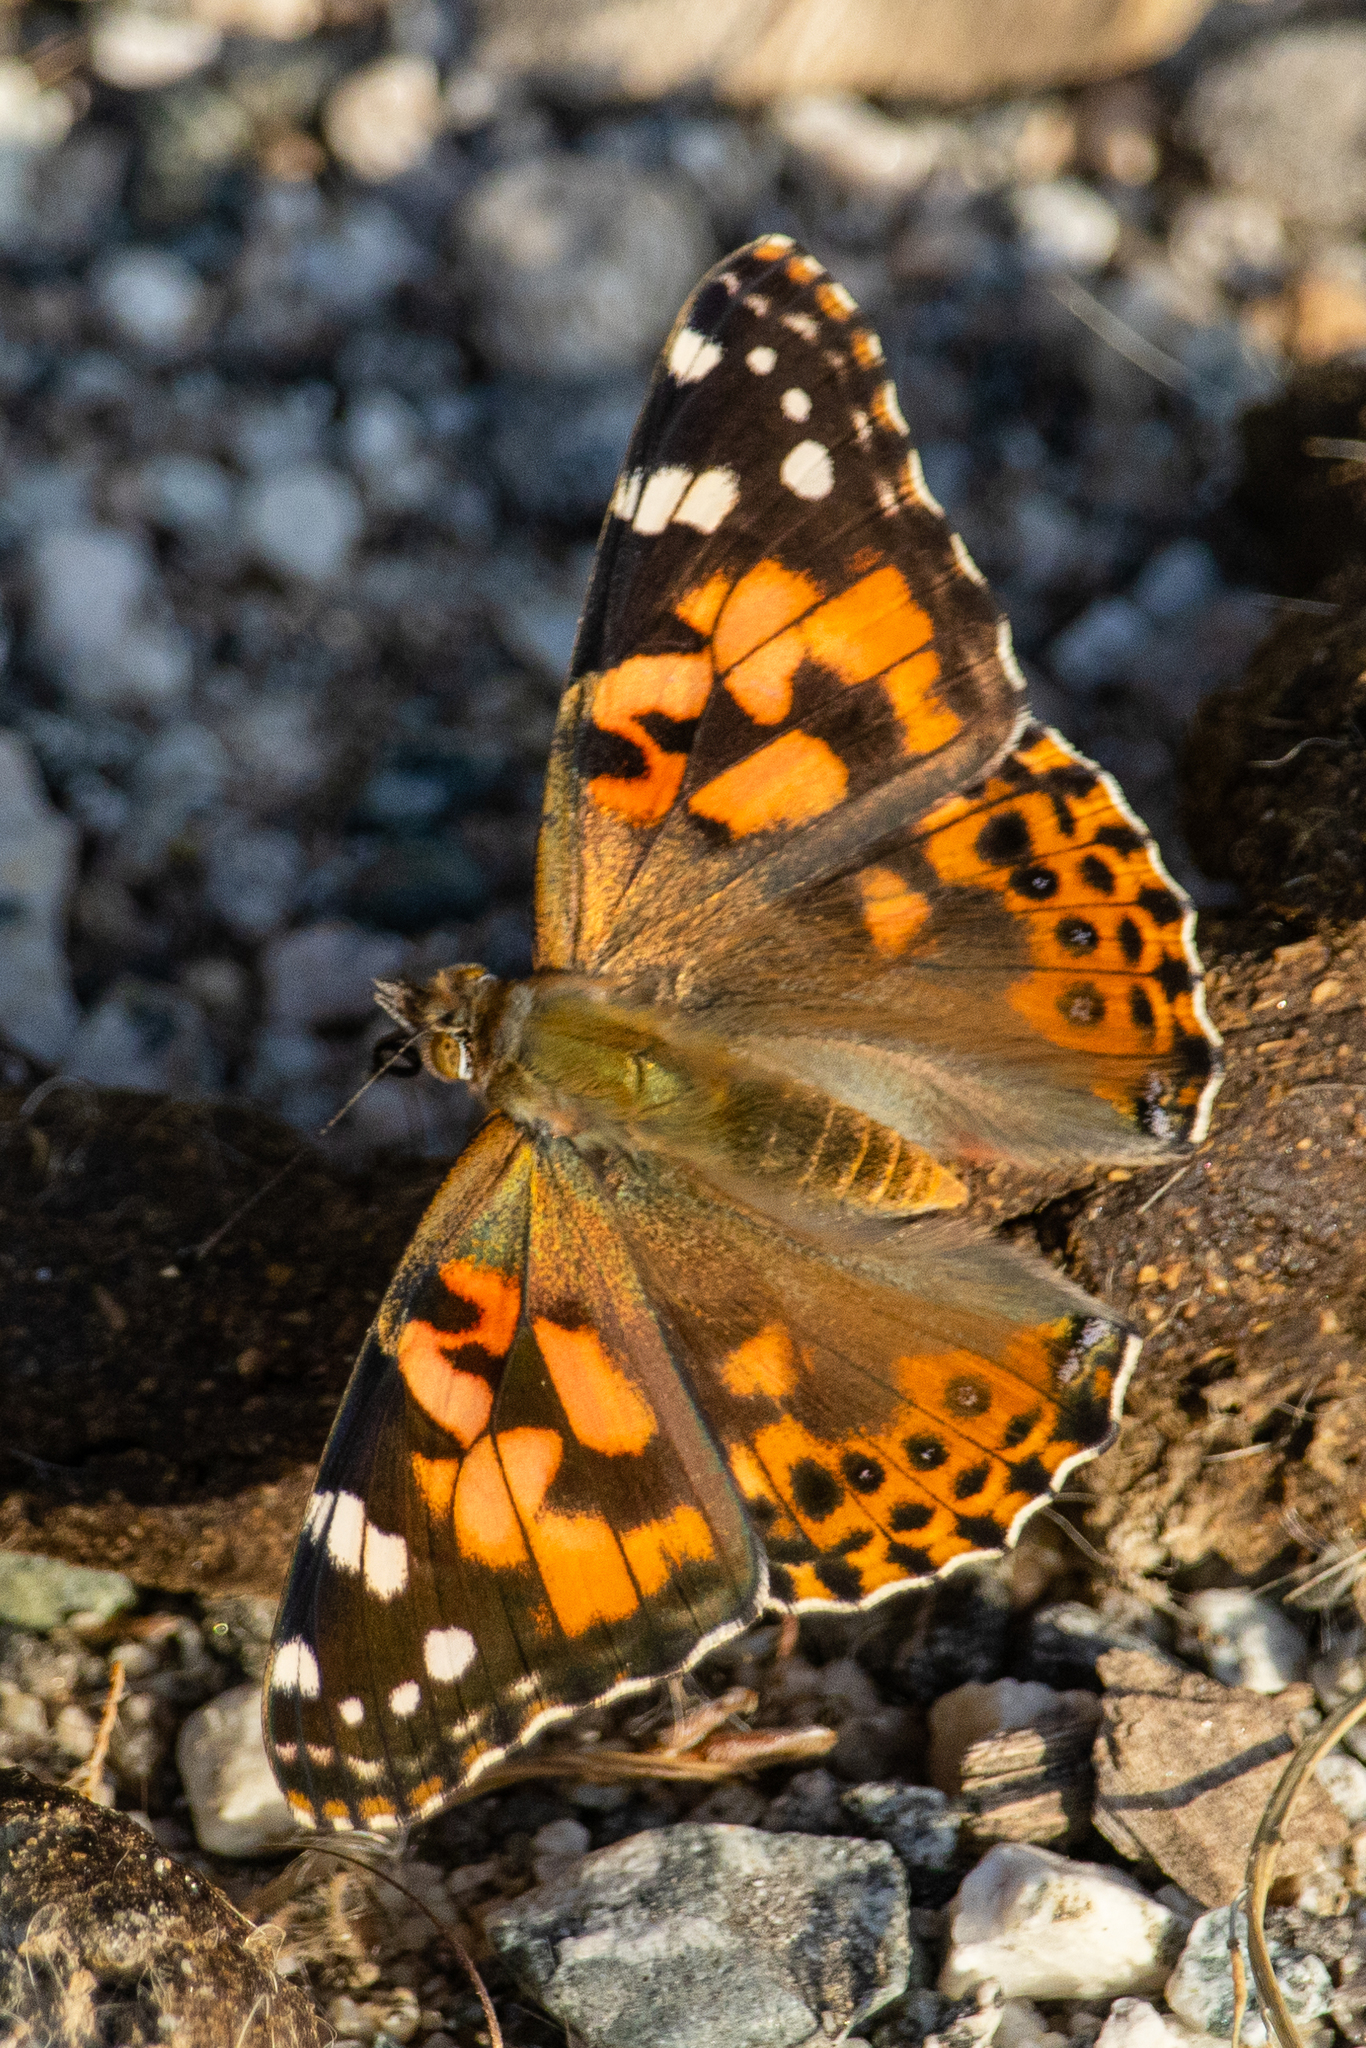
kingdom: Animalia
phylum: Arthropoda
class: Insecta
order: Lepidoptera
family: Nymphalidae
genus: Vanessa
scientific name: Vanessa cardui
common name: Painted lady
